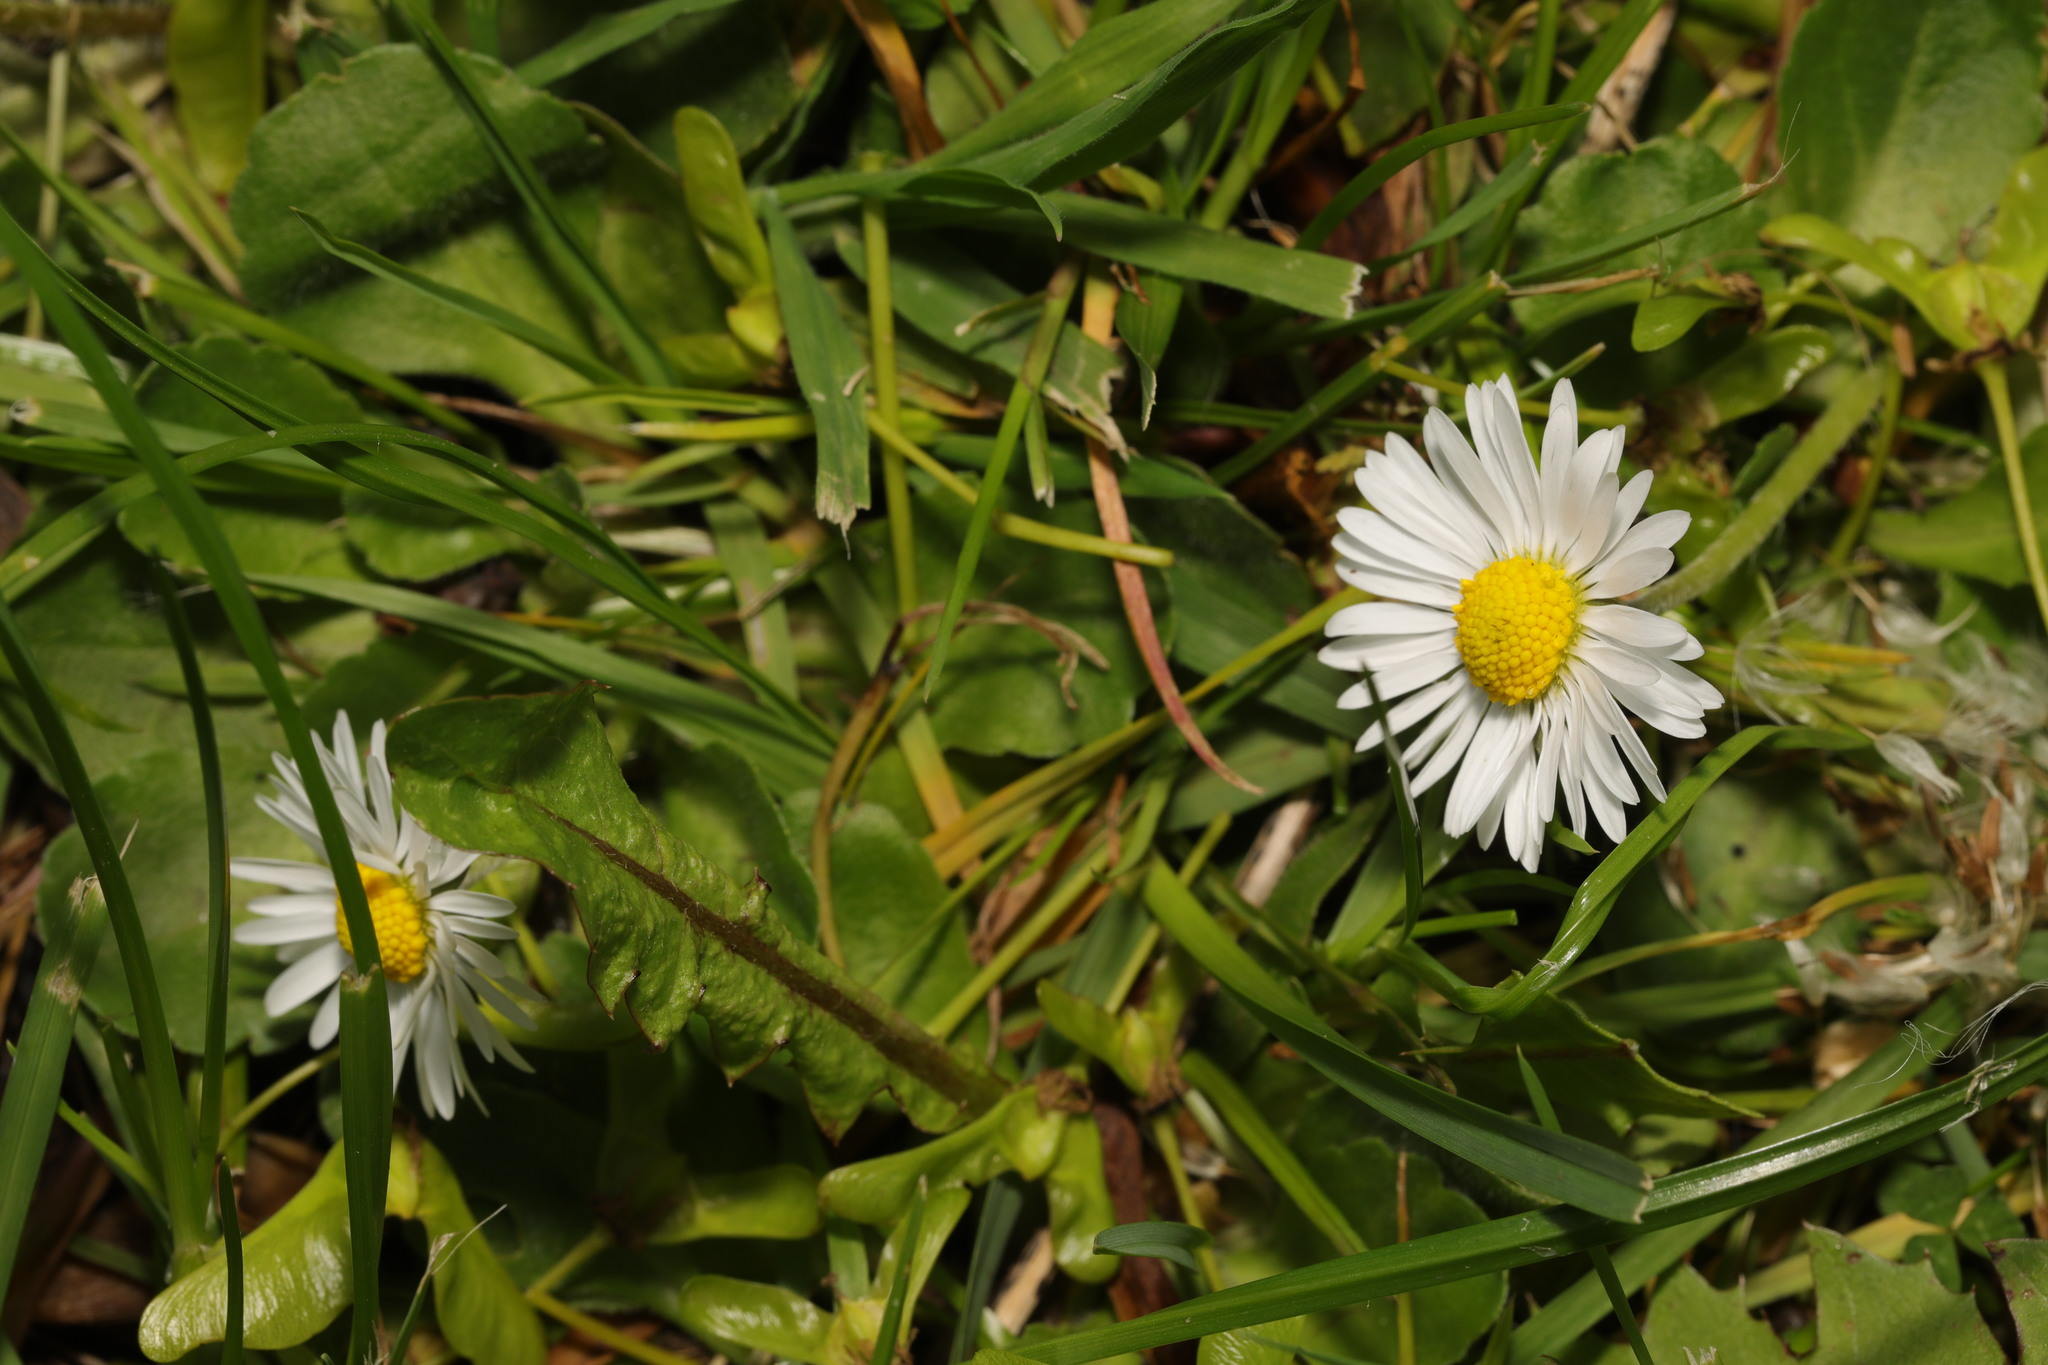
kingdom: Plantae
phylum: Tracheophyta
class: Magnoliopsida
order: Asterales
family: Asteraceae
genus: Bellis
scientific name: Bellis perennis
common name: Lawndaisy
